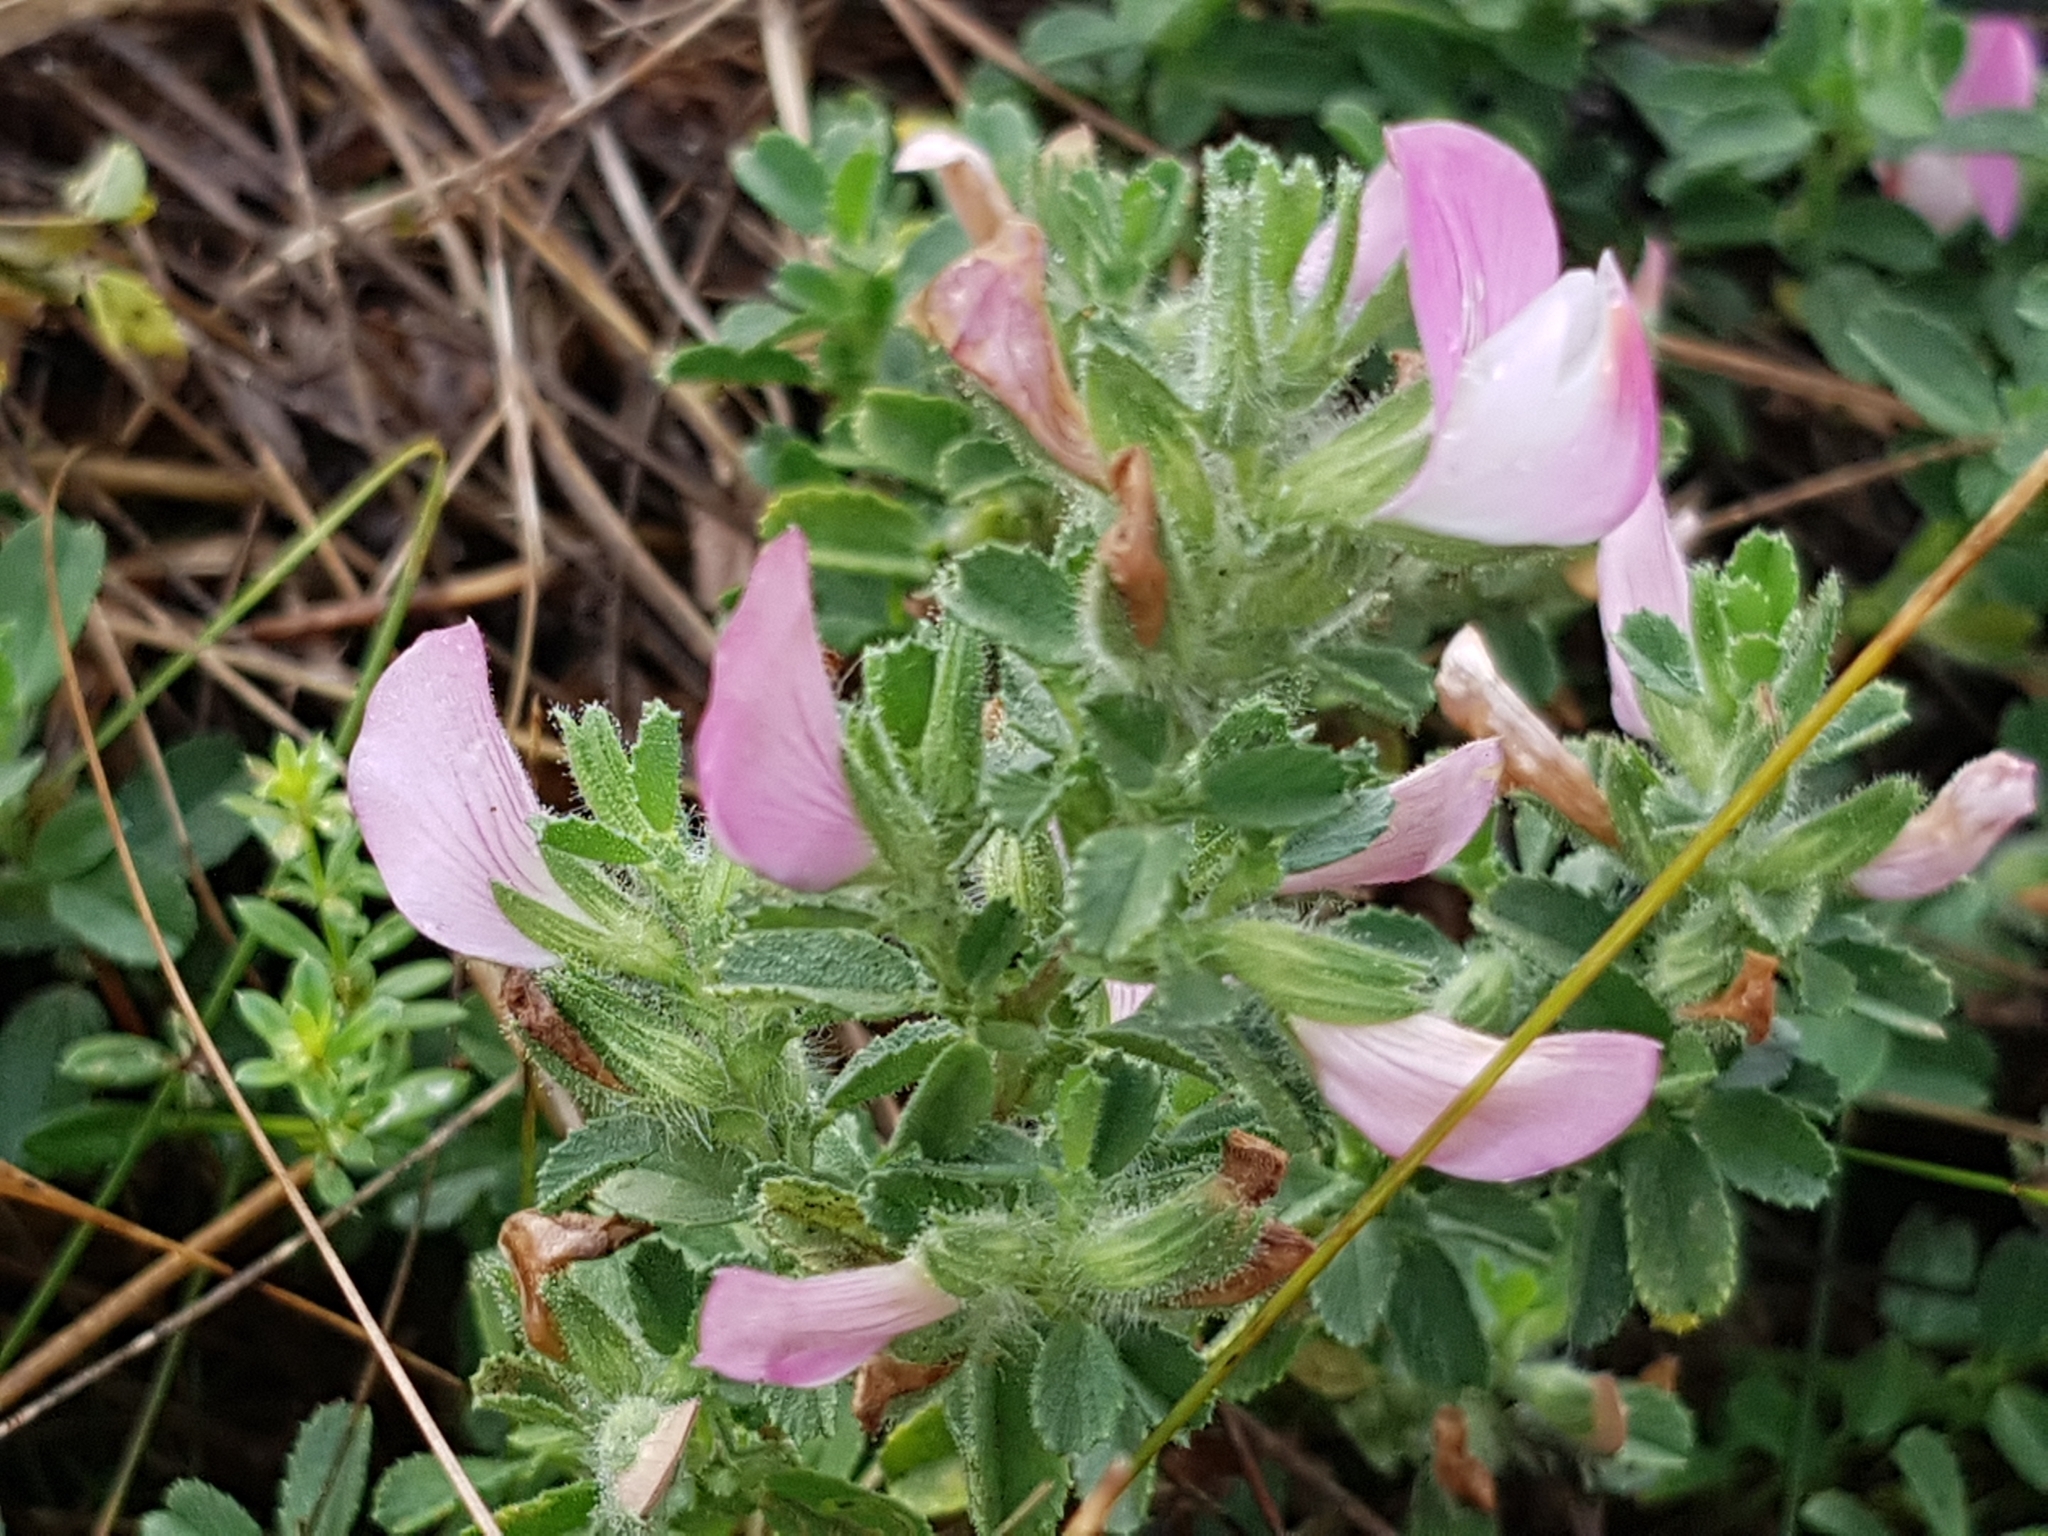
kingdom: Plantae
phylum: Tracheophyta
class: Magnoliopsida
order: Fabales
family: Fabaceae
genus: Ononis
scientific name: Ononis spinosa
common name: Spiny restharrow
